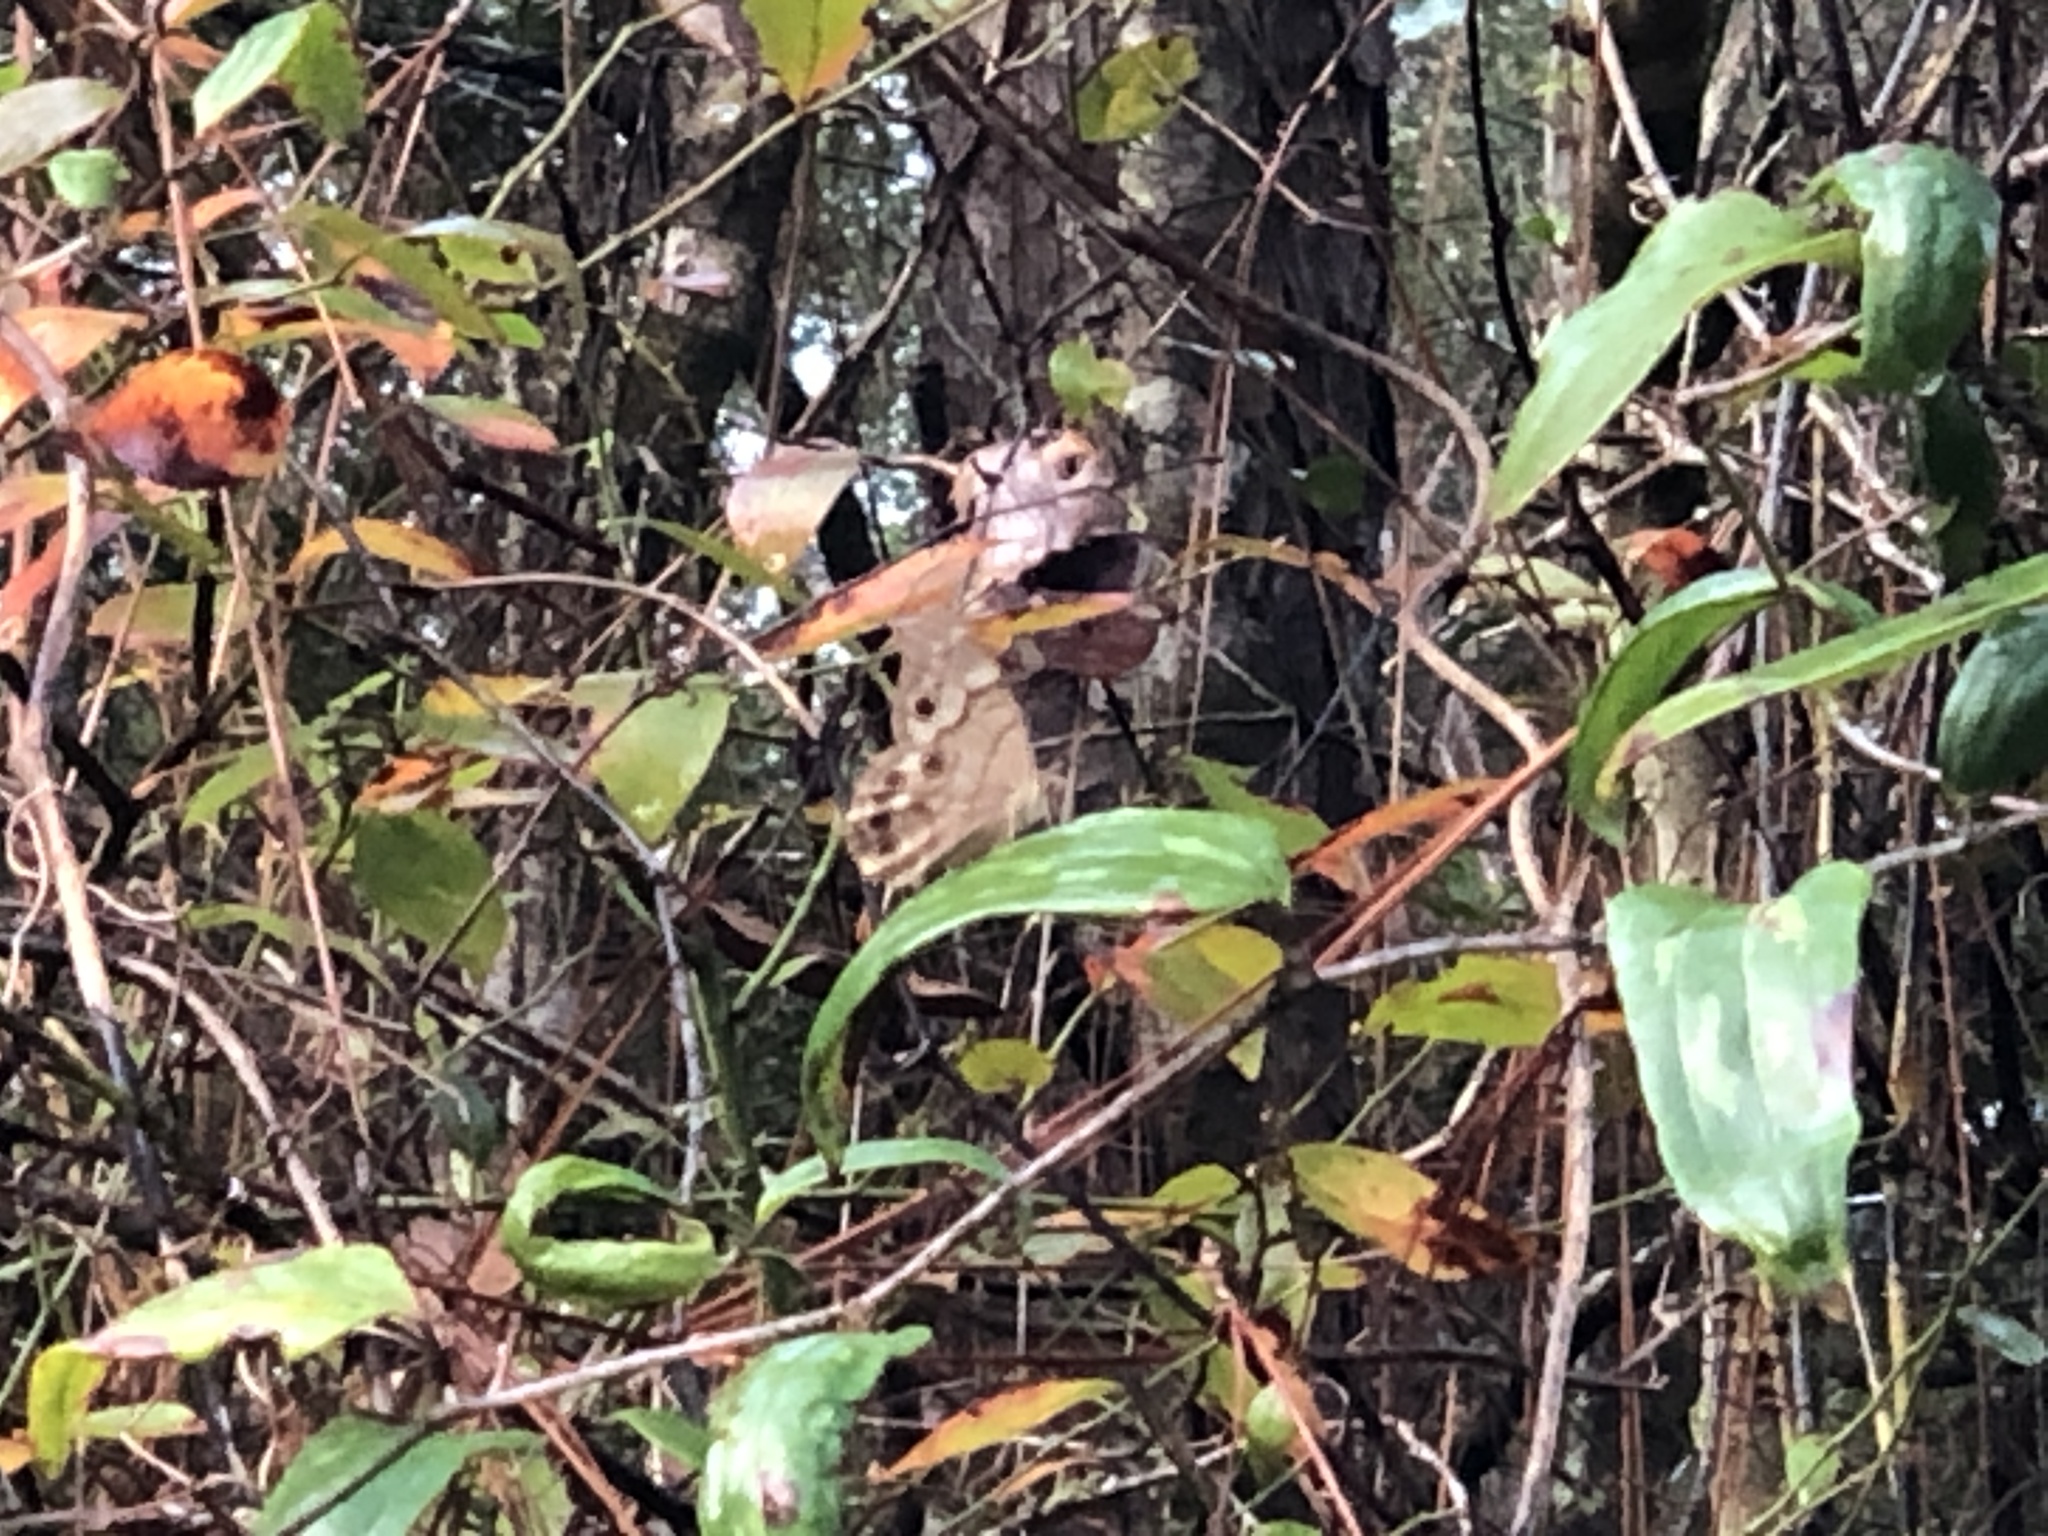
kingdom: Animalia
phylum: Arthropoda
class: Insecta
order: Lepidoptera
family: Nymphalidae
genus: Enodia
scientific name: Enodia portlandia
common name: Southern pearly-eye
